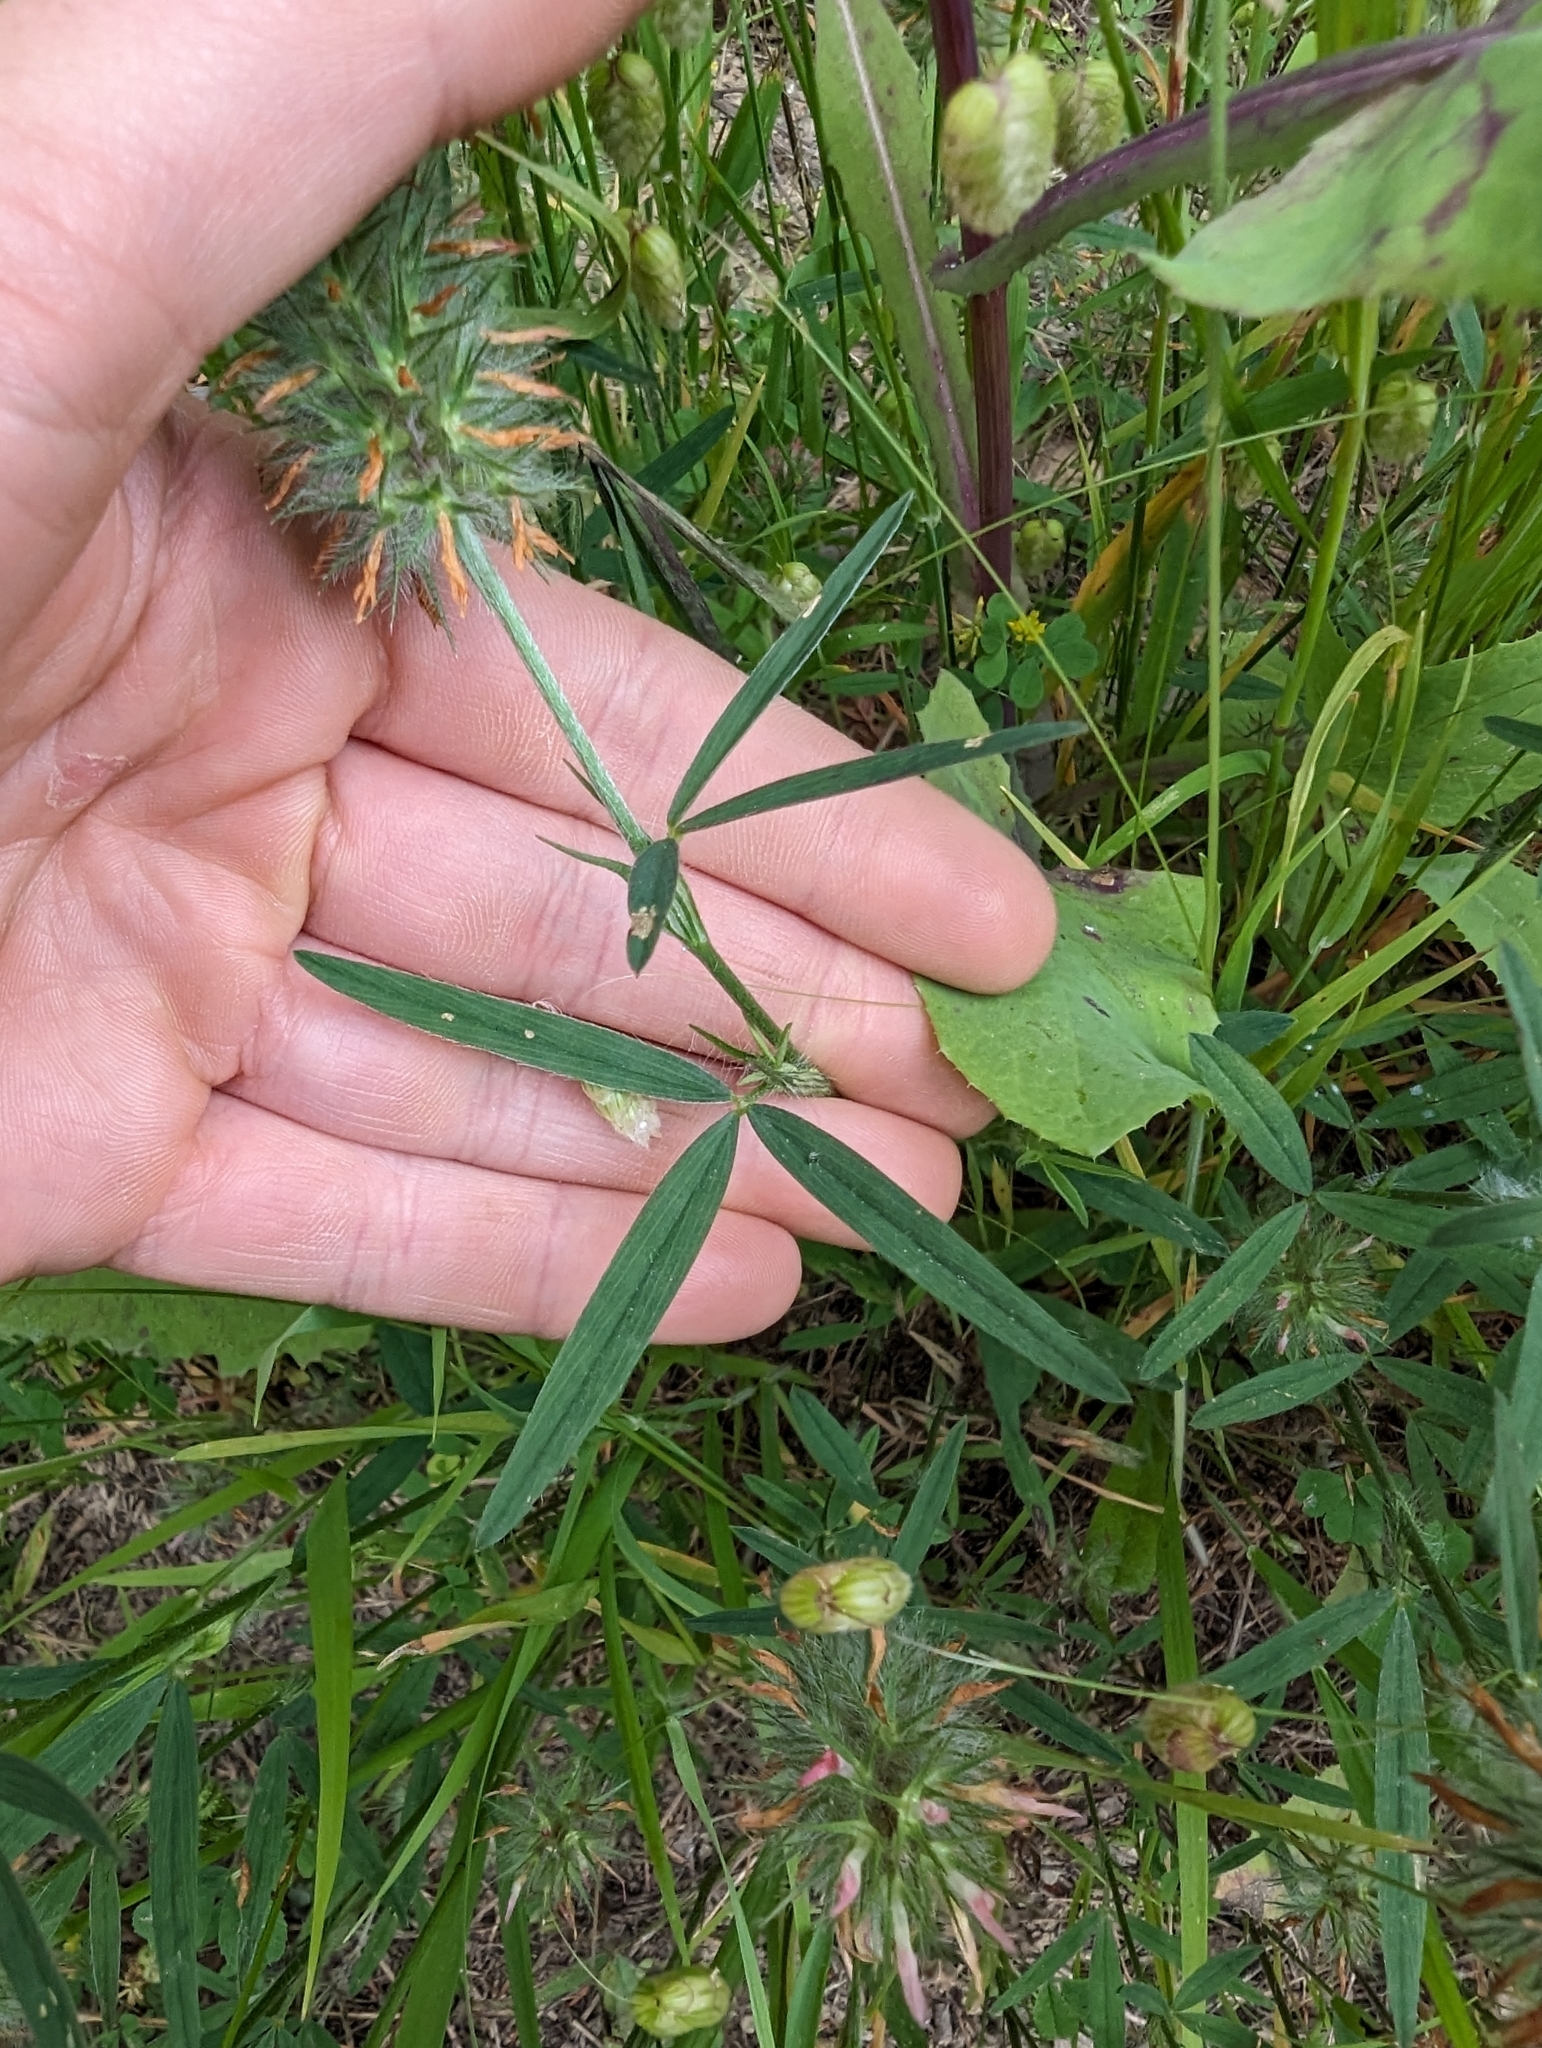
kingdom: Plantae
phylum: Tracheophyta
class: Magnoliopsida
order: Fabales
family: Fabaceae
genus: Trifolium
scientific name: Trifolium angustifolium
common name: Narrow clover
